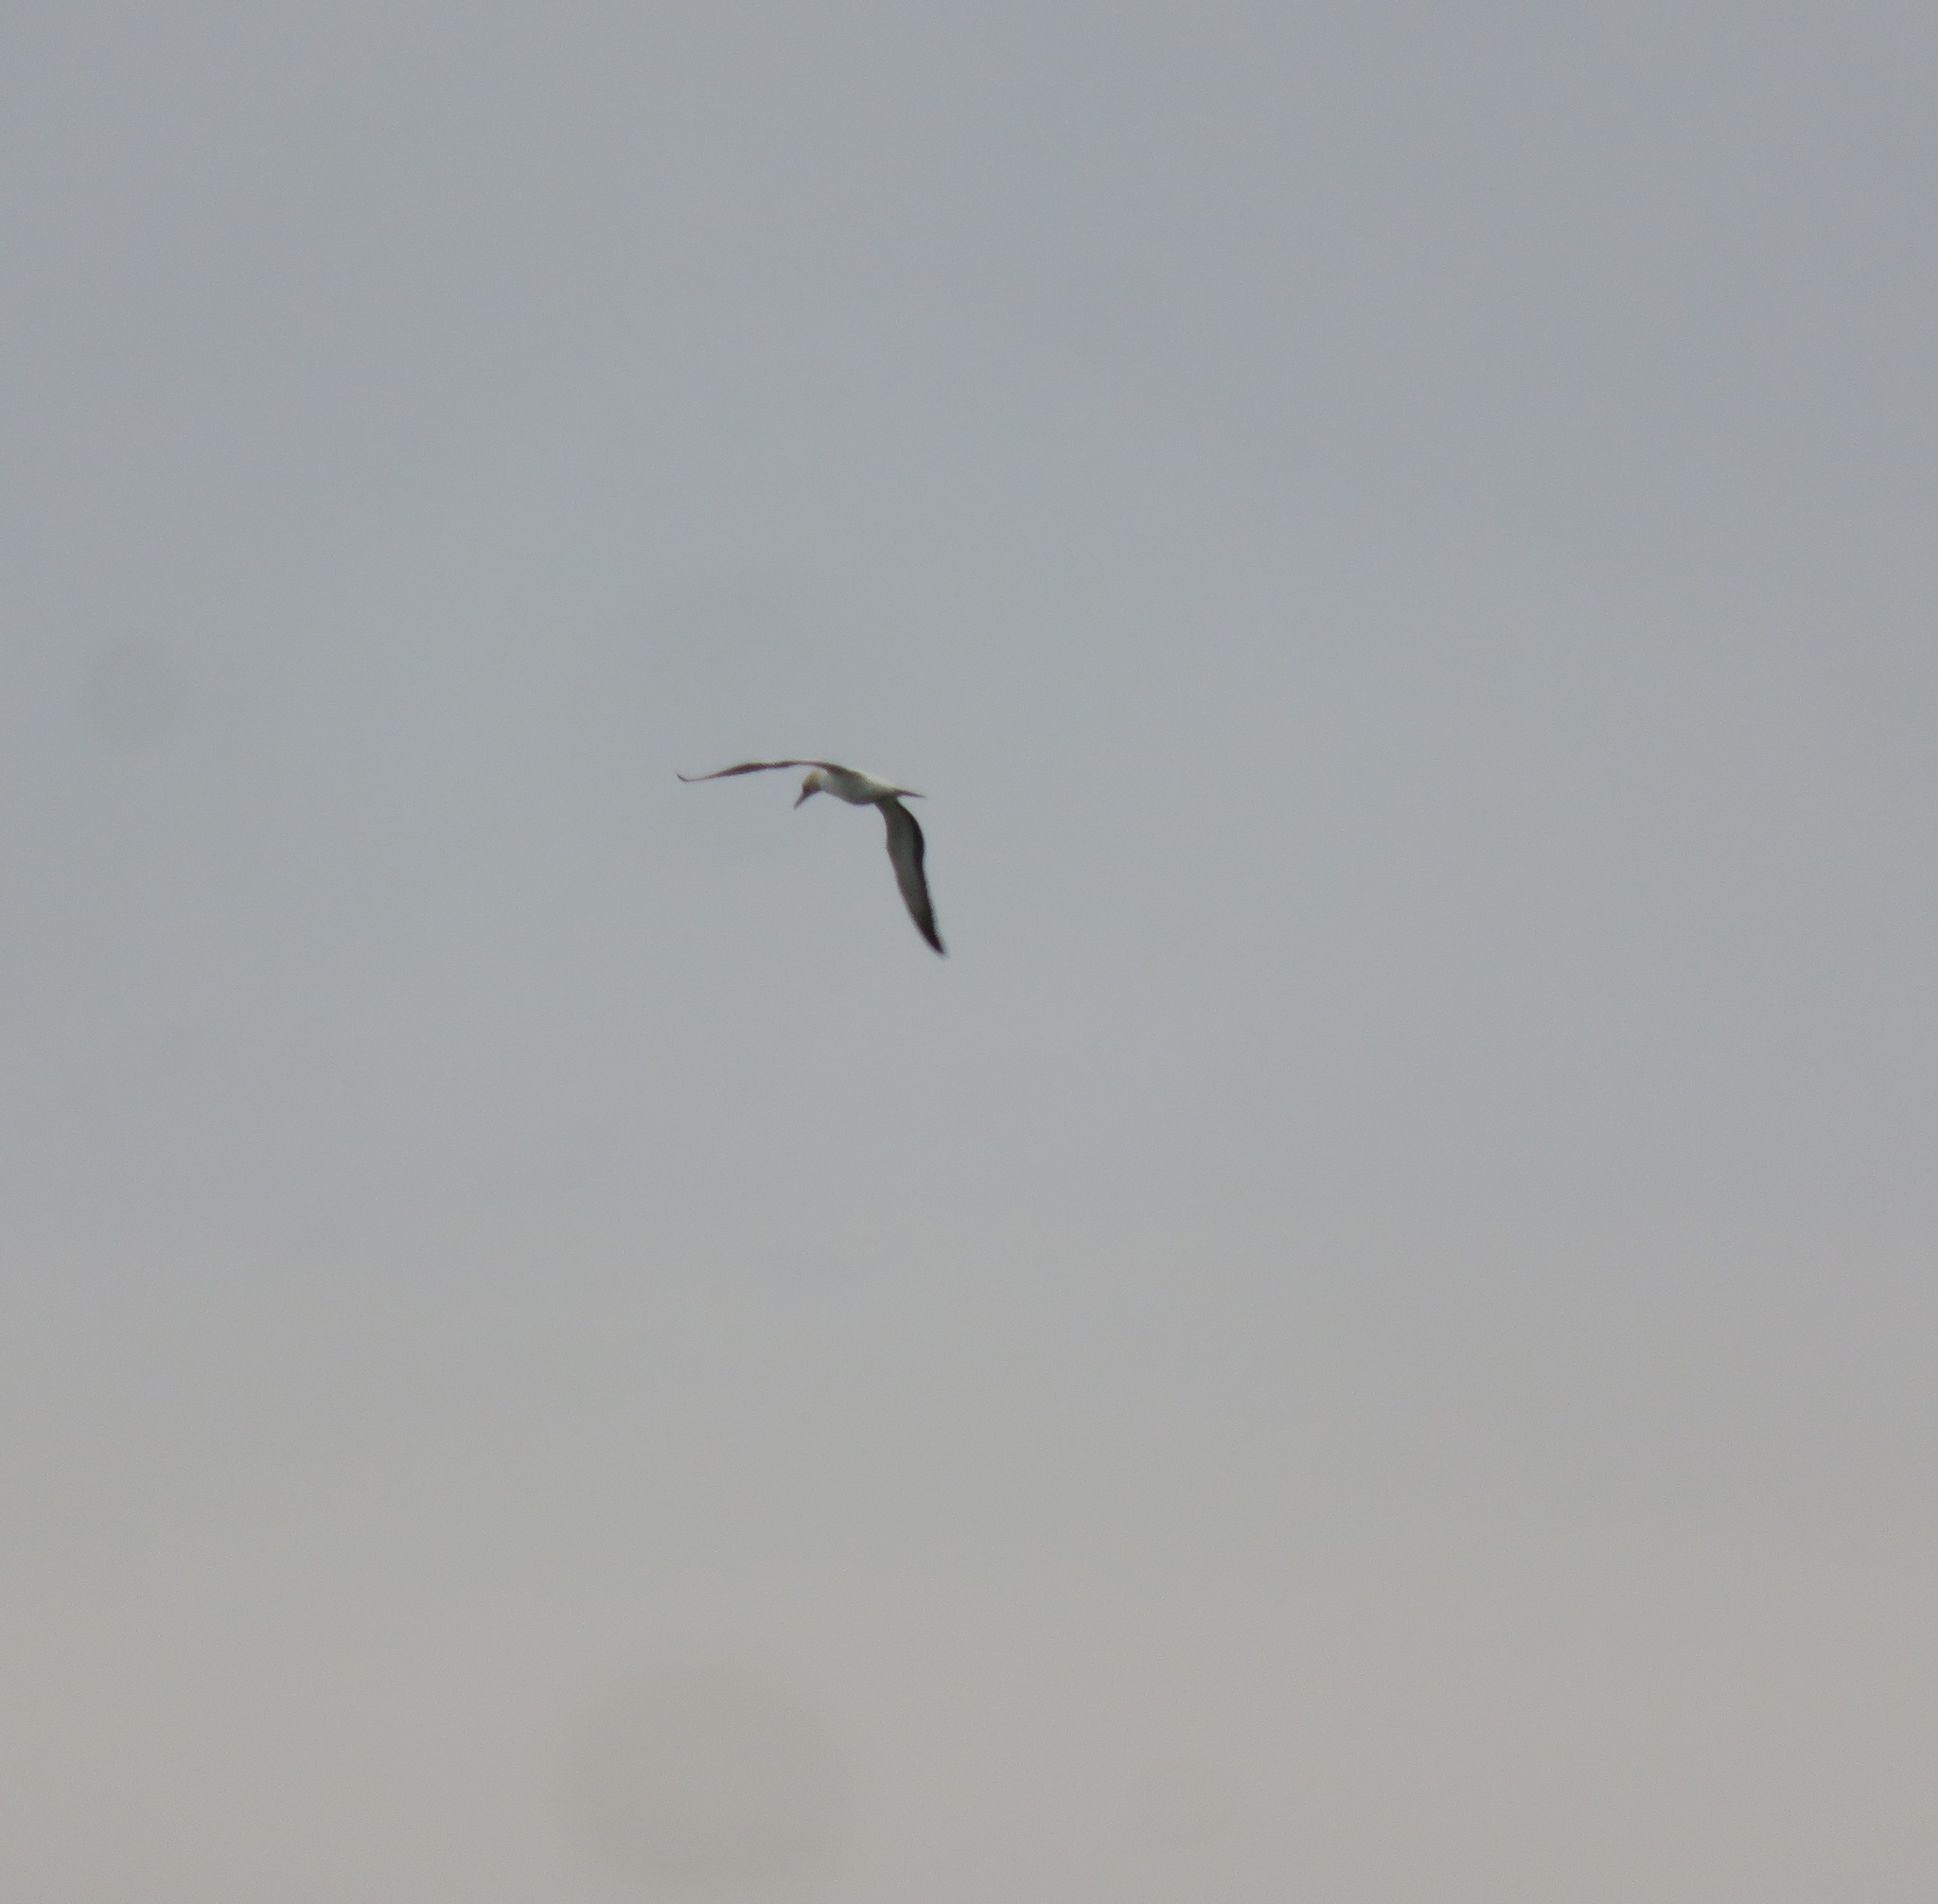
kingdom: Animalia
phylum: Chordata
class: Aves
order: Suliformes
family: Sulidae
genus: Morus
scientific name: Morus serrator
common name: Australasian gannet
